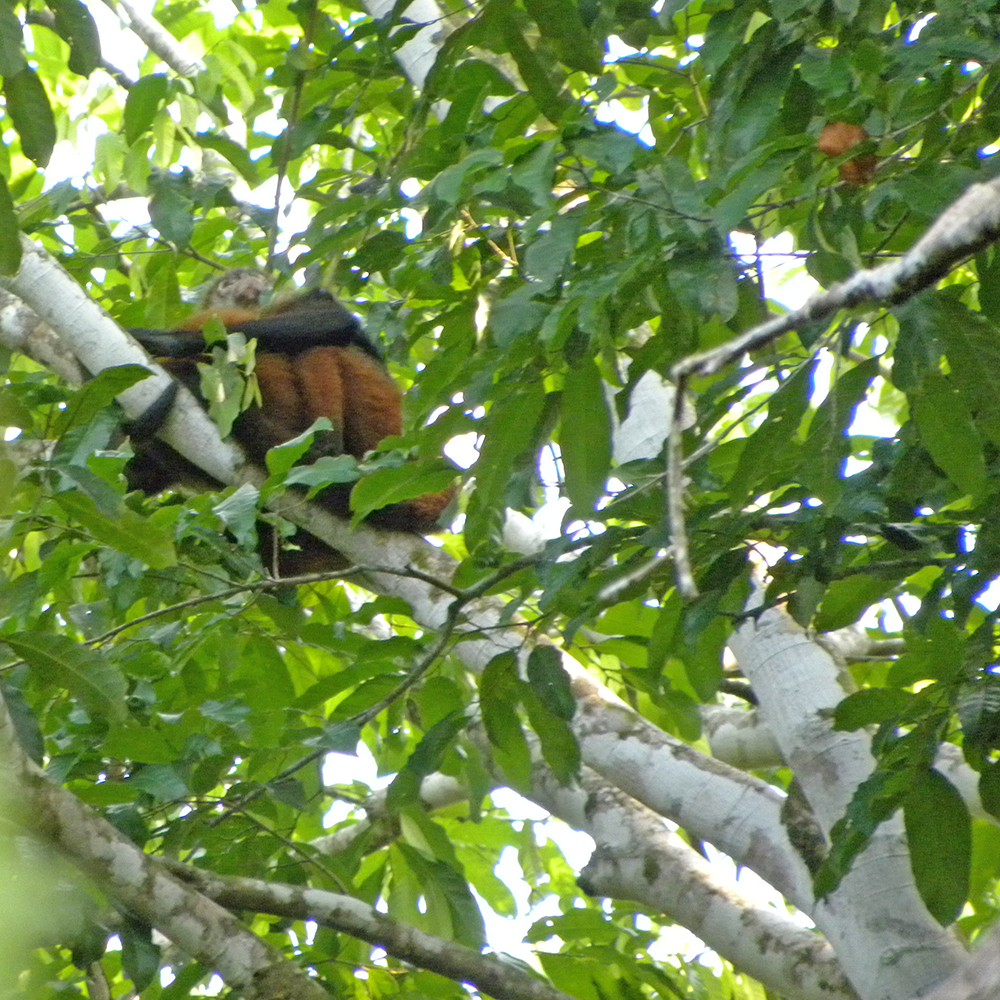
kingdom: Animalia
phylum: Chordata
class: Mammalia
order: Primates
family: Atelidae
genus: Ateles
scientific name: Ateles geoffroyi
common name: Black-handed spider monkey
